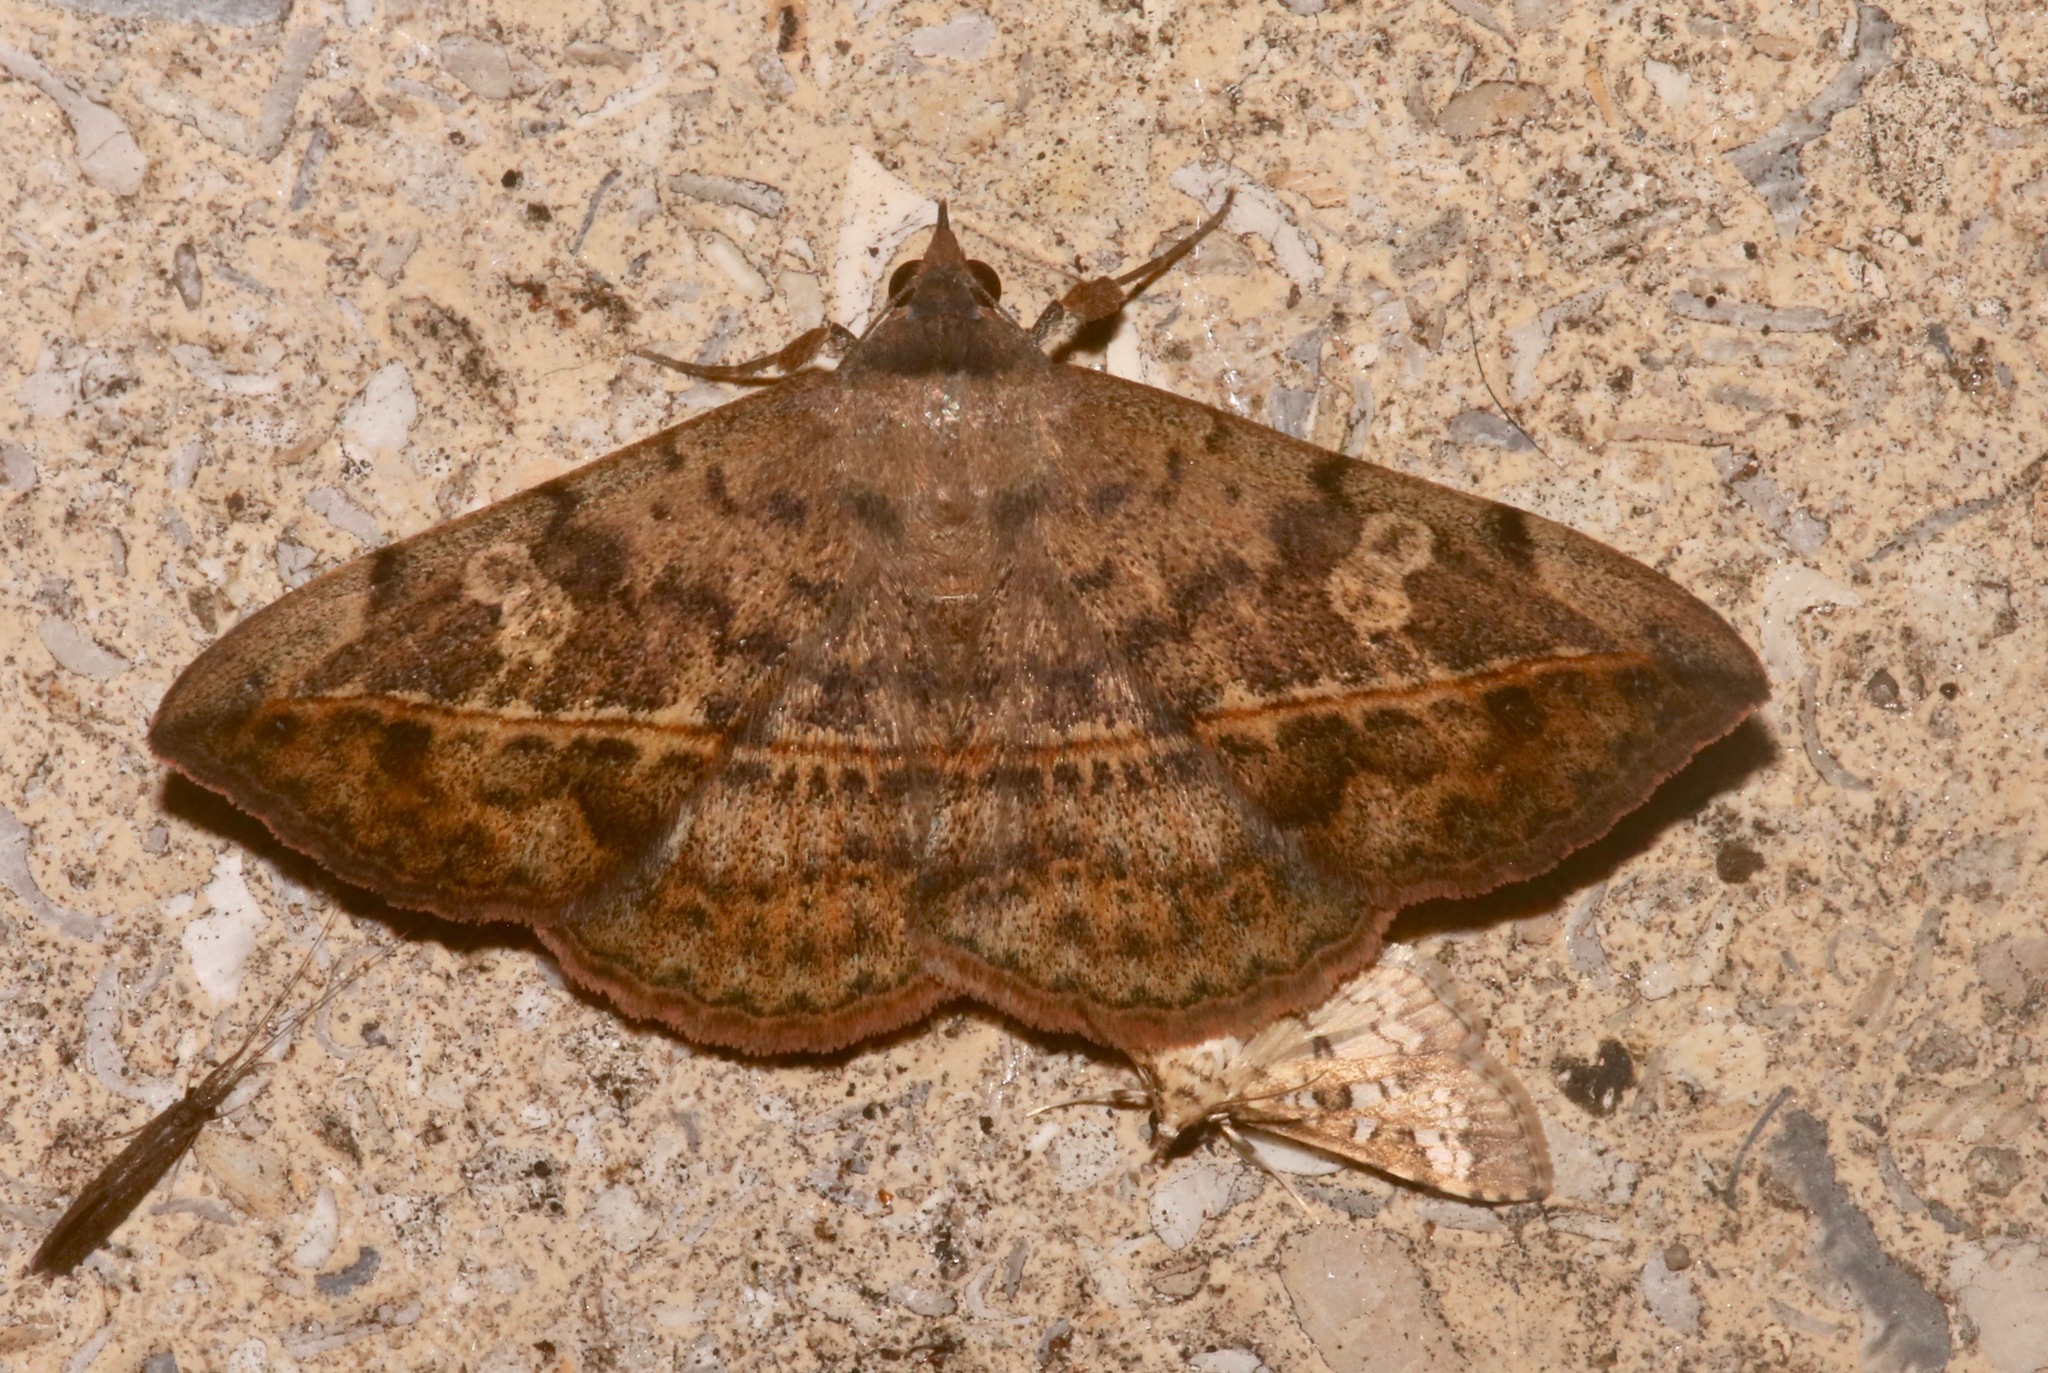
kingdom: Animalia
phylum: Arthropoda
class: Insecta
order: Lepidoptera
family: Erebidae
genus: Anticarsia
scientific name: Anticarsia gemmatalis
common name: Cutworm moth
